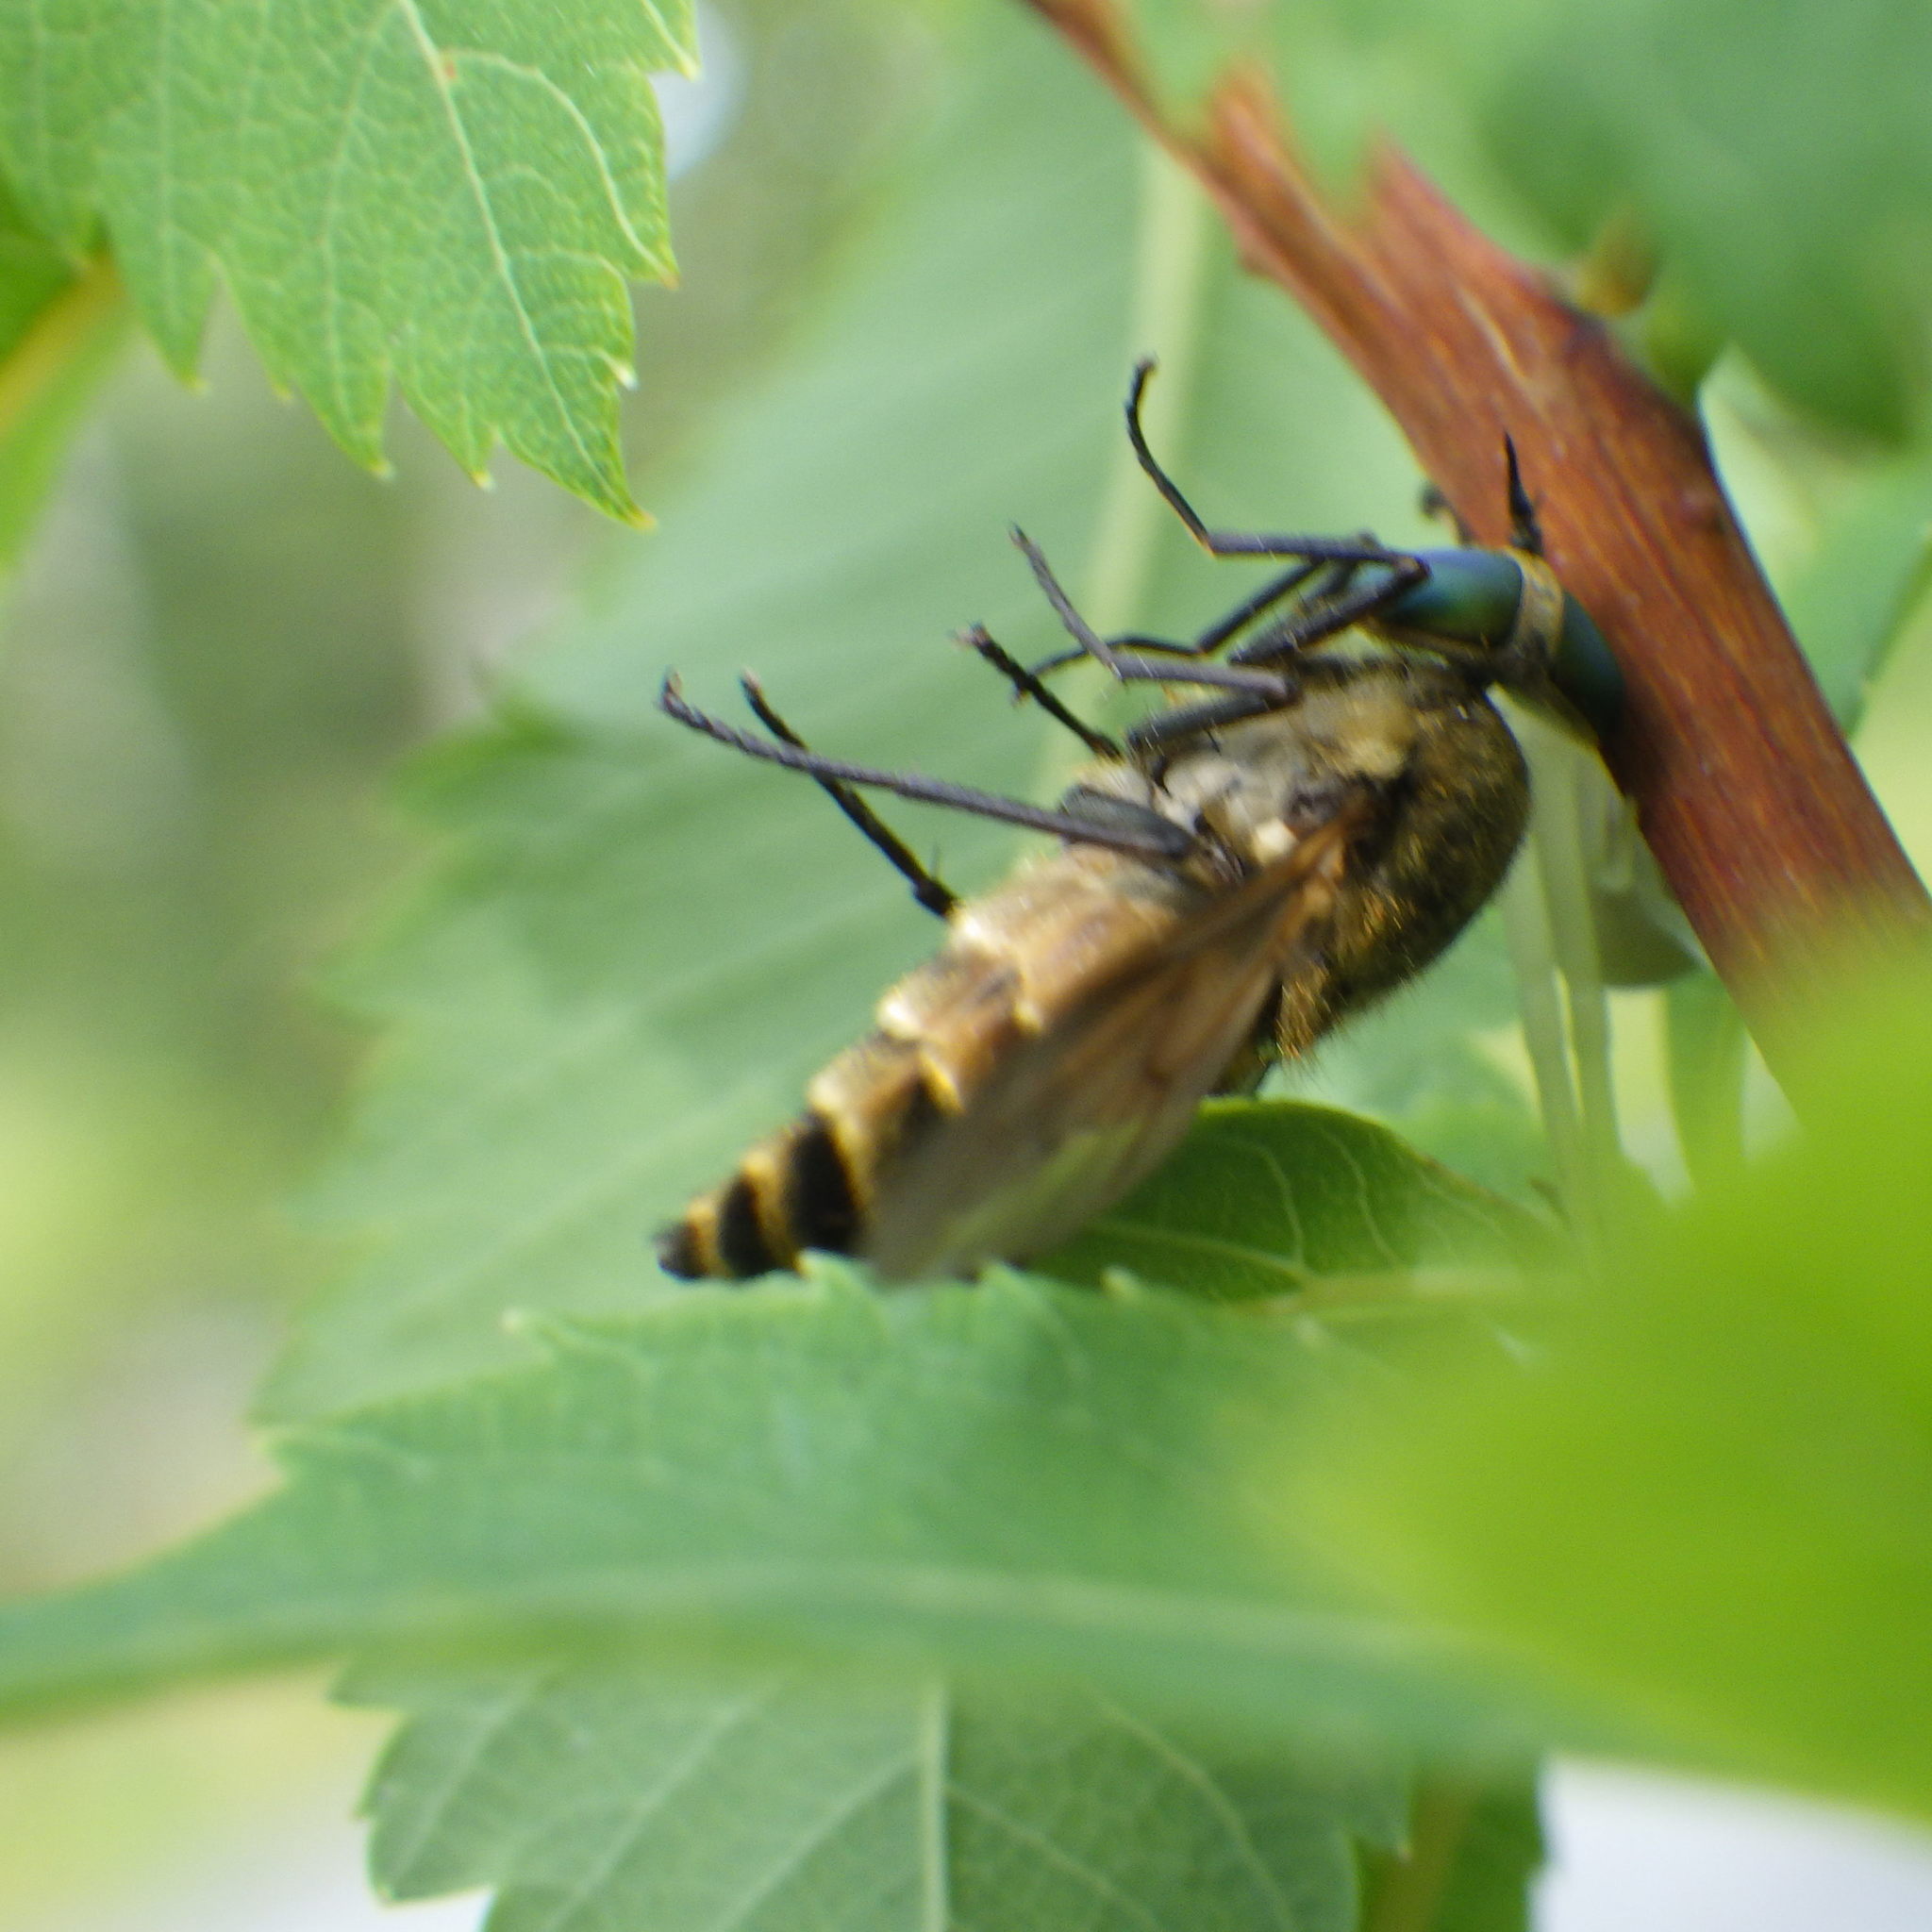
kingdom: Animalia
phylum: Arthropoda
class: Insecta
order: Diptera
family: Tabanidae
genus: Stonemyia
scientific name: Stonemyia tranquilla
